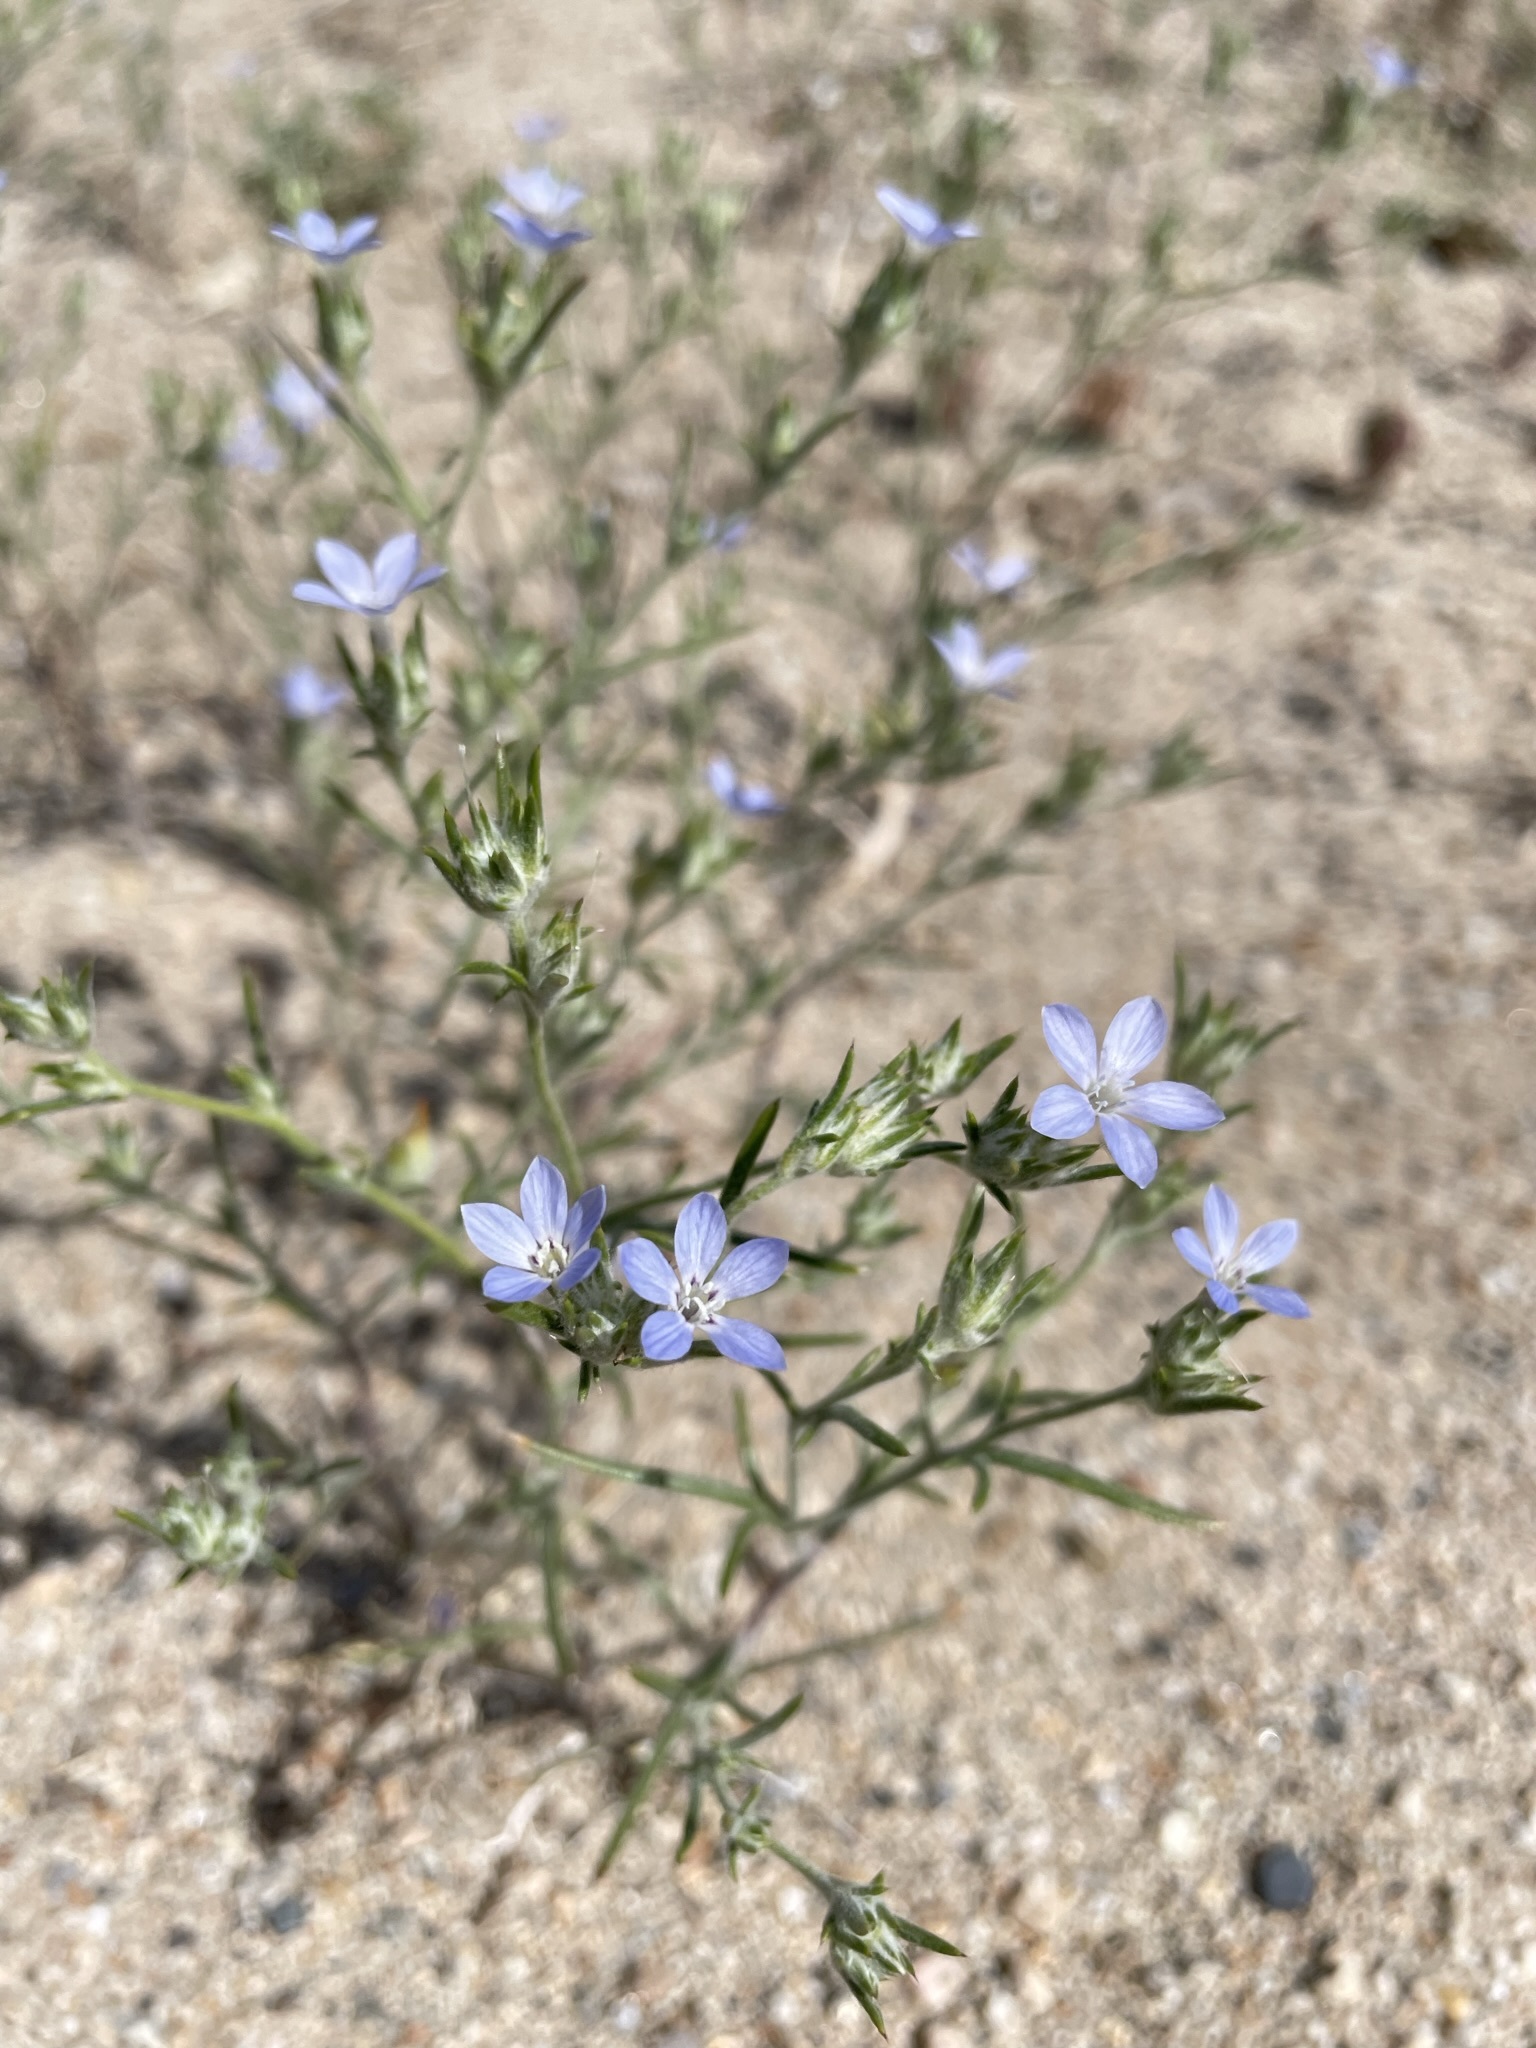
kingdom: Plantae
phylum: Tracheophyta
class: Magnoliopsida
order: Ericales
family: Polemoniaceae
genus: Eriastrum
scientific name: Eriastrum wilcoxii
